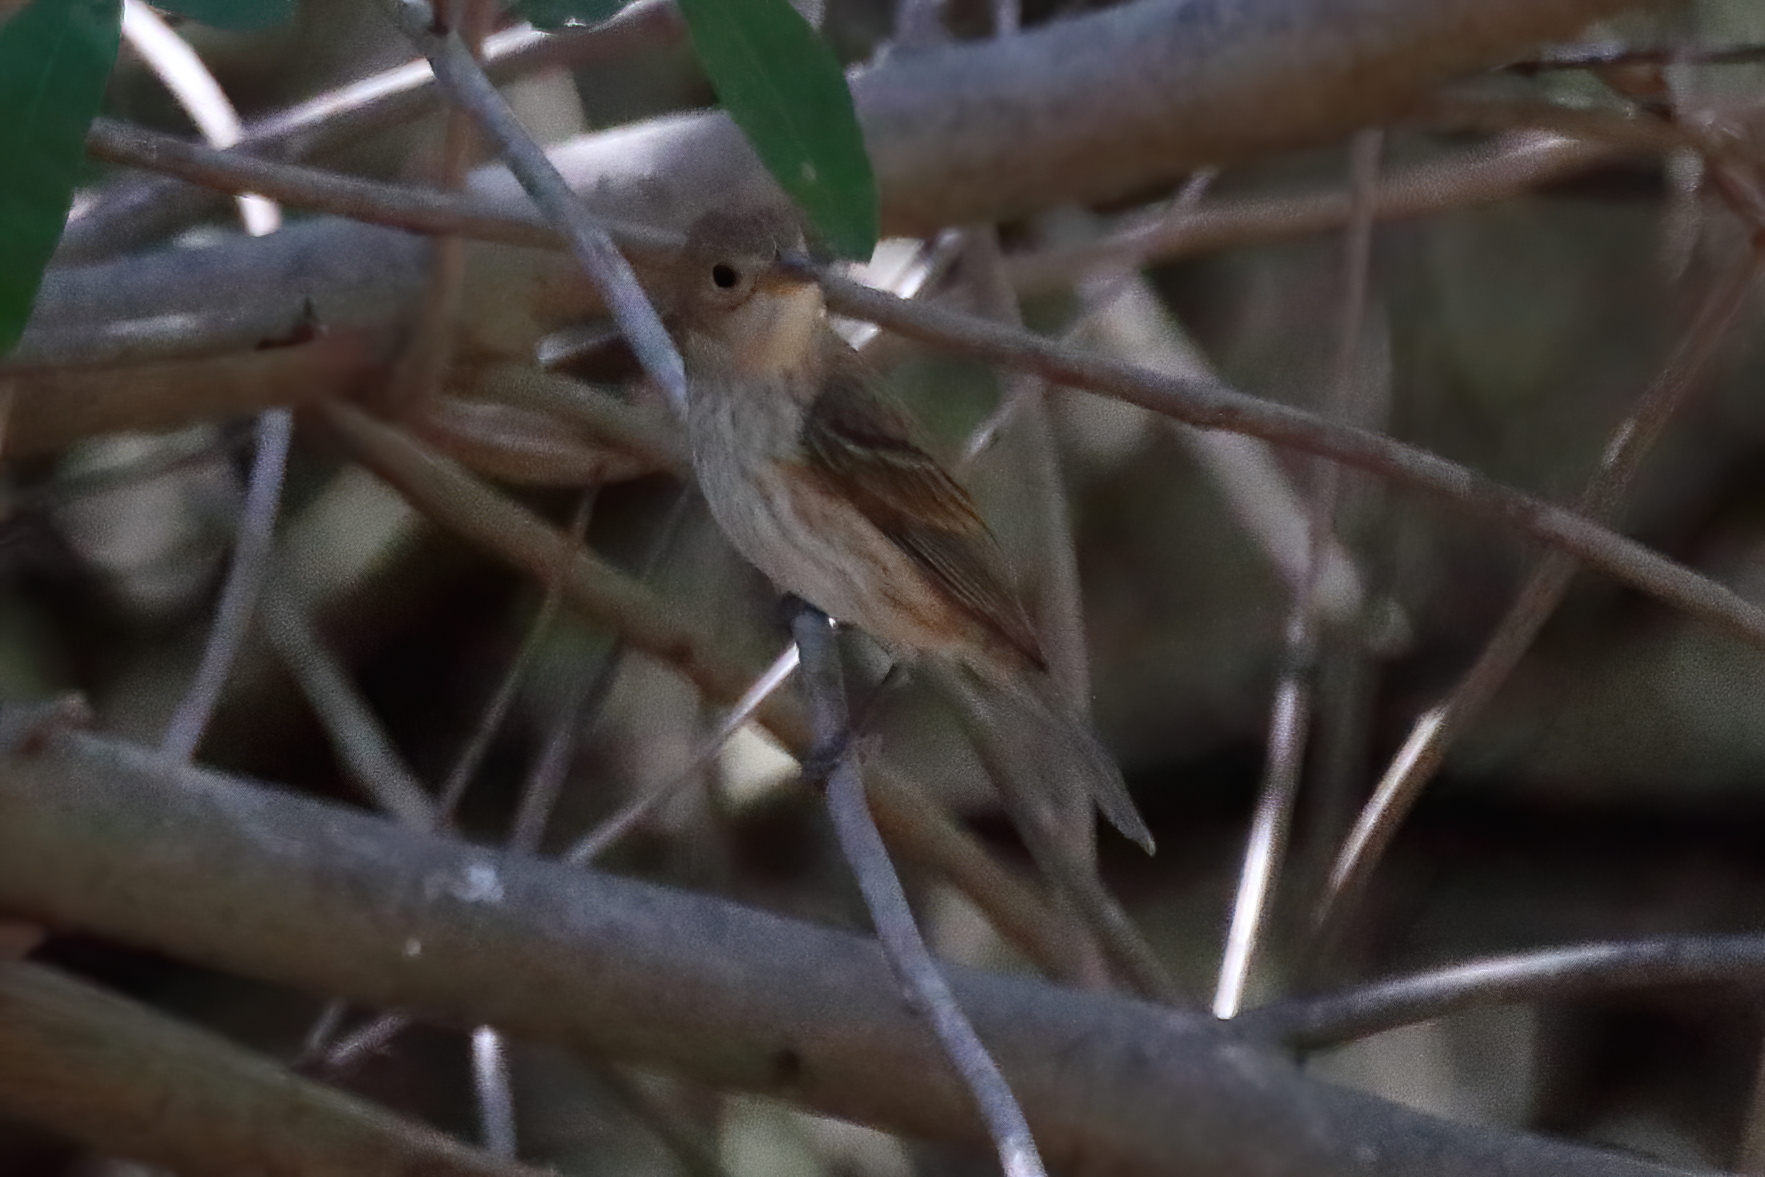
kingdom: Animalia
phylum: Chordata
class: Aves
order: Passeriformes
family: Cardinalidae
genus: Passerina
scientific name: Passerina cyanea
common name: Indigo bunting
